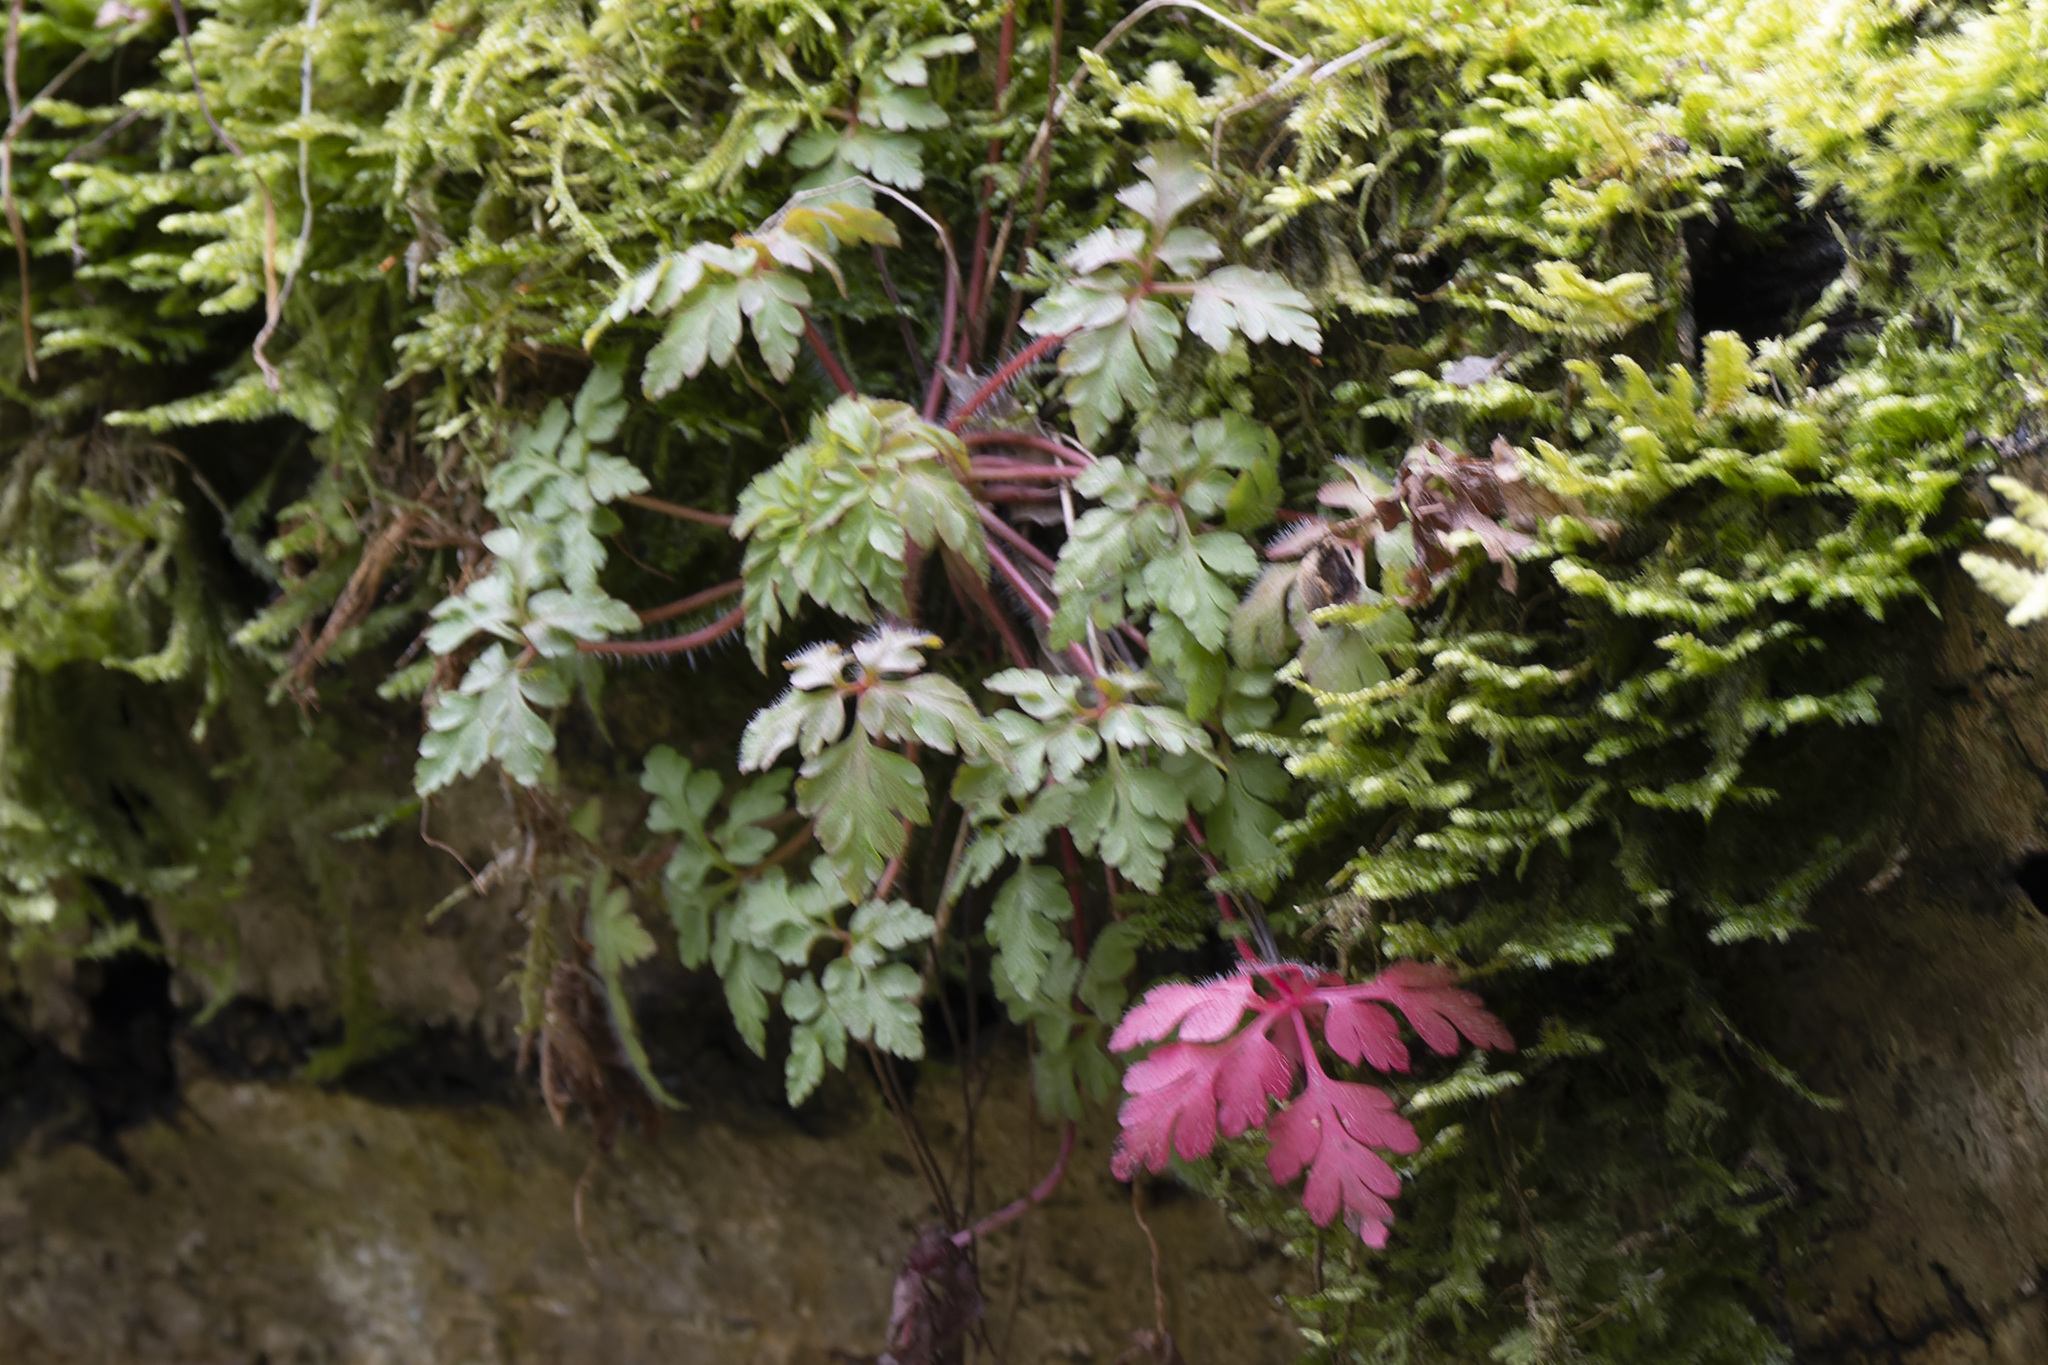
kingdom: Plantae
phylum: Tracheophyta
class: Magnoliopsida
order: Geraniales
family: Geraniaceae
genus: Geranium
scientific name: Geranium robertianum
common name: Herb-robert
